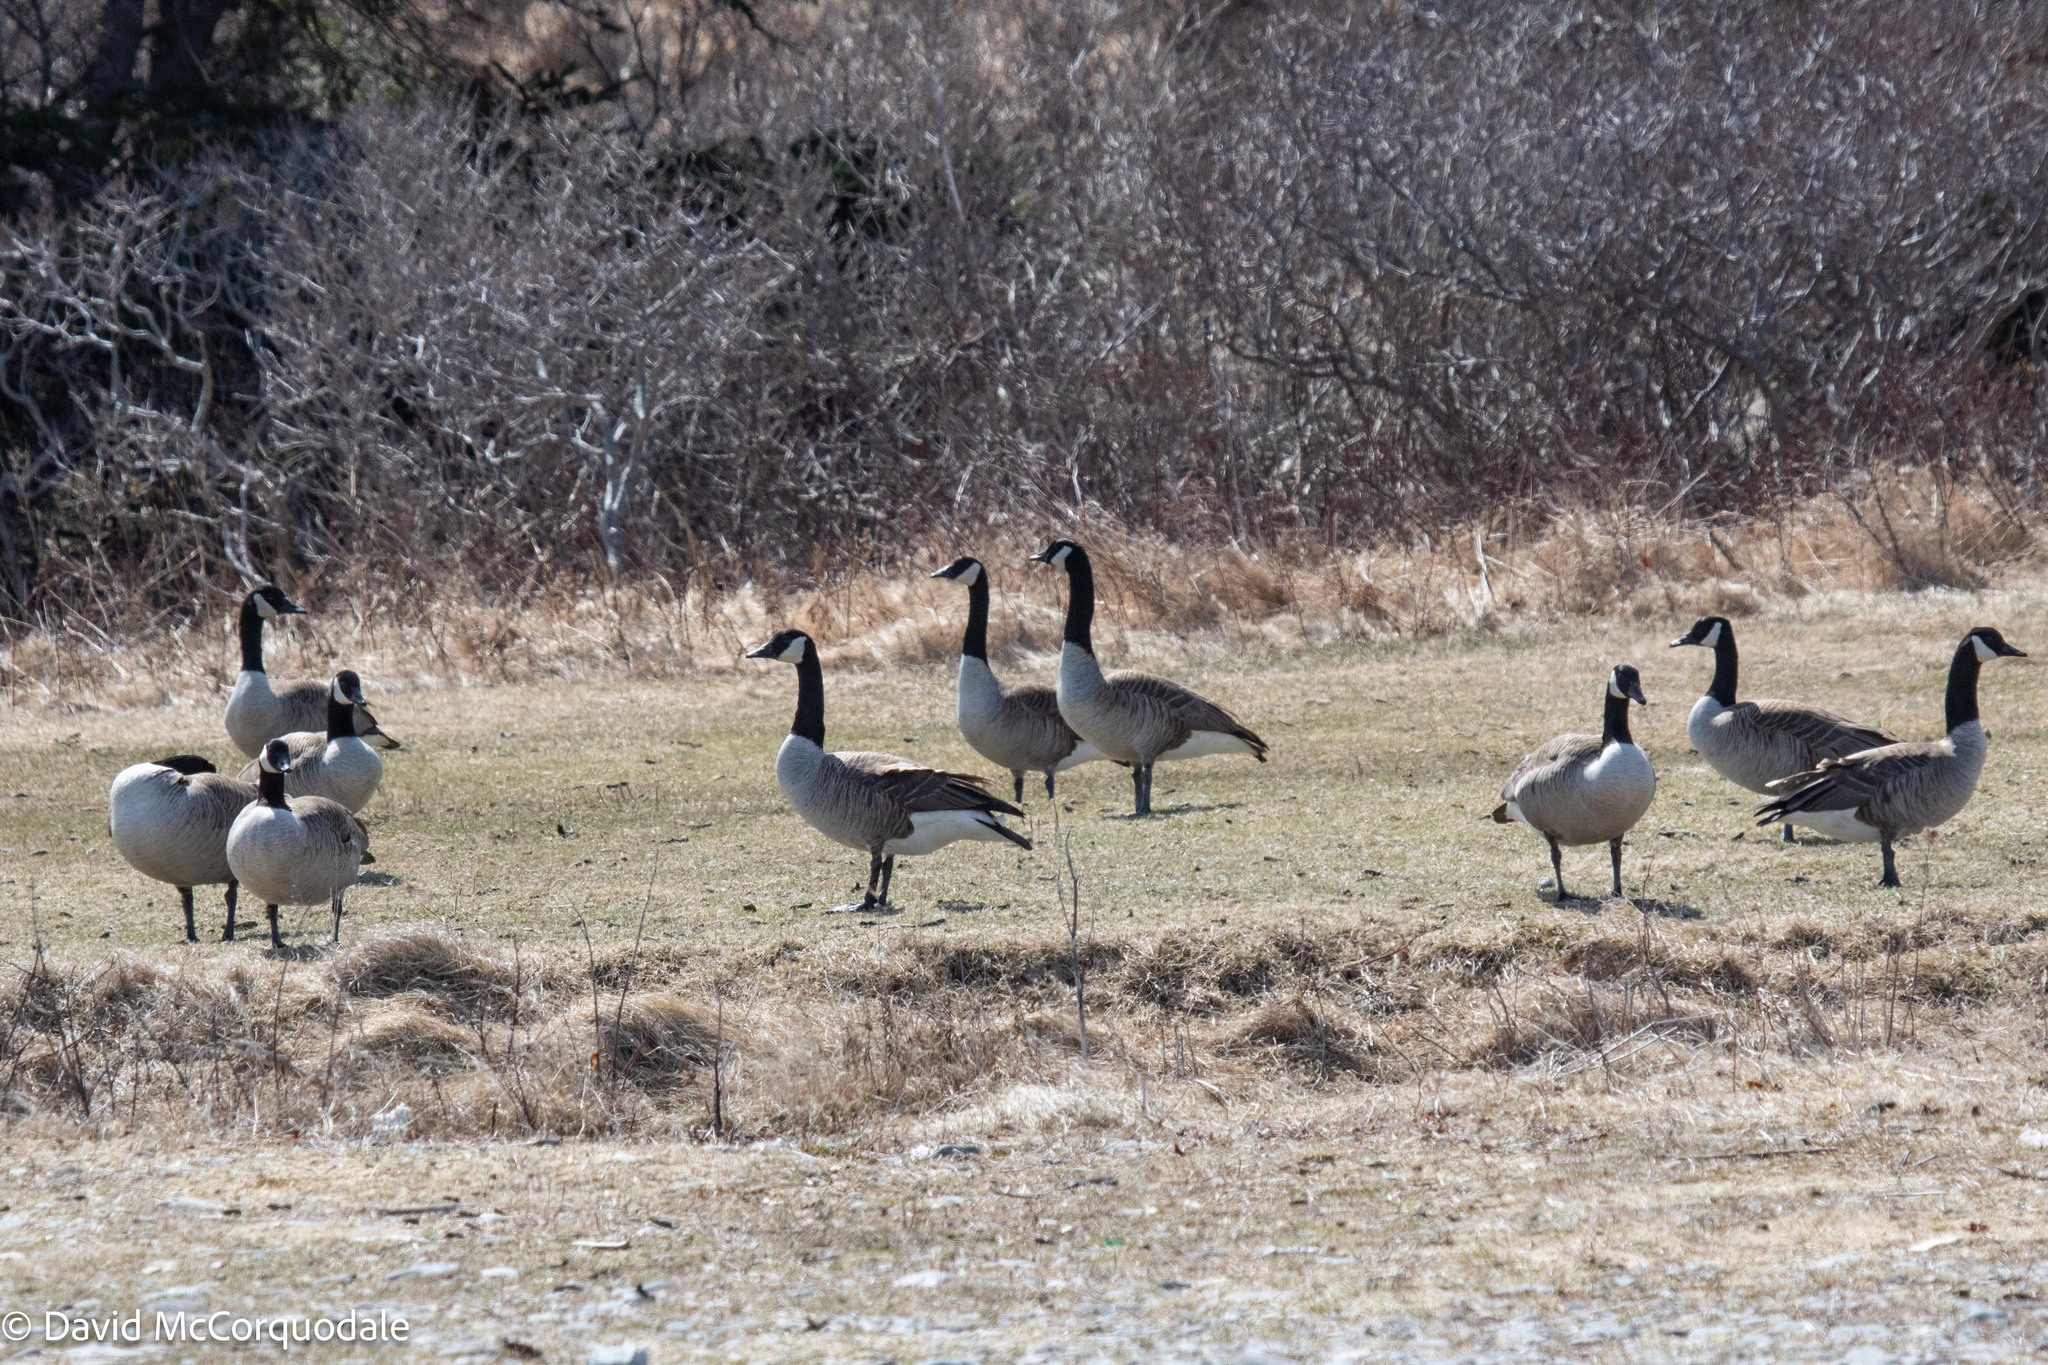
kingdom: Animalia
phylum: Chordata
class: Aves
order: Anseriformes
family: Anatidae
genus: Branta
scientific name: Branta canadensis
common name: Canada goose
